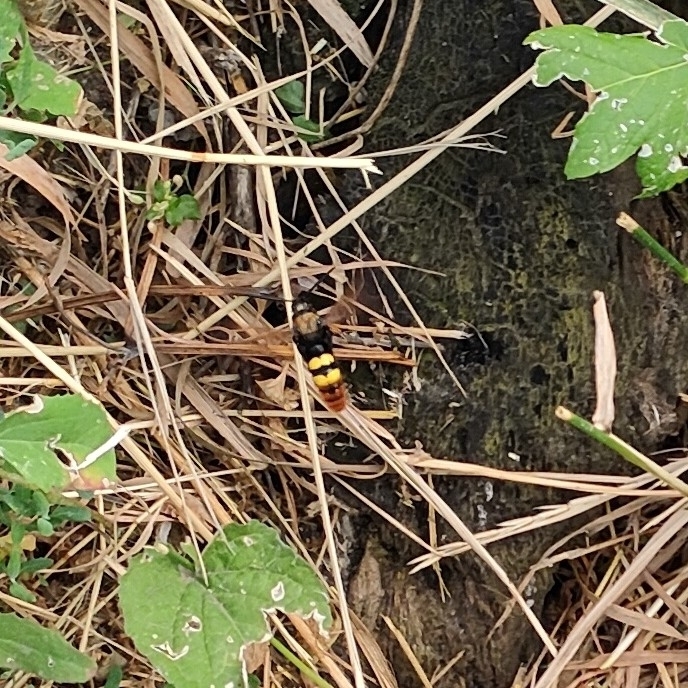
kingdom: Animalia
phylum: Arthropoda
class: Insecta
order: Hymenoptera
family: Scoliidae
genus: Megascolia
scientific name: Megascolia maculata
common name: Mammoth wasp
